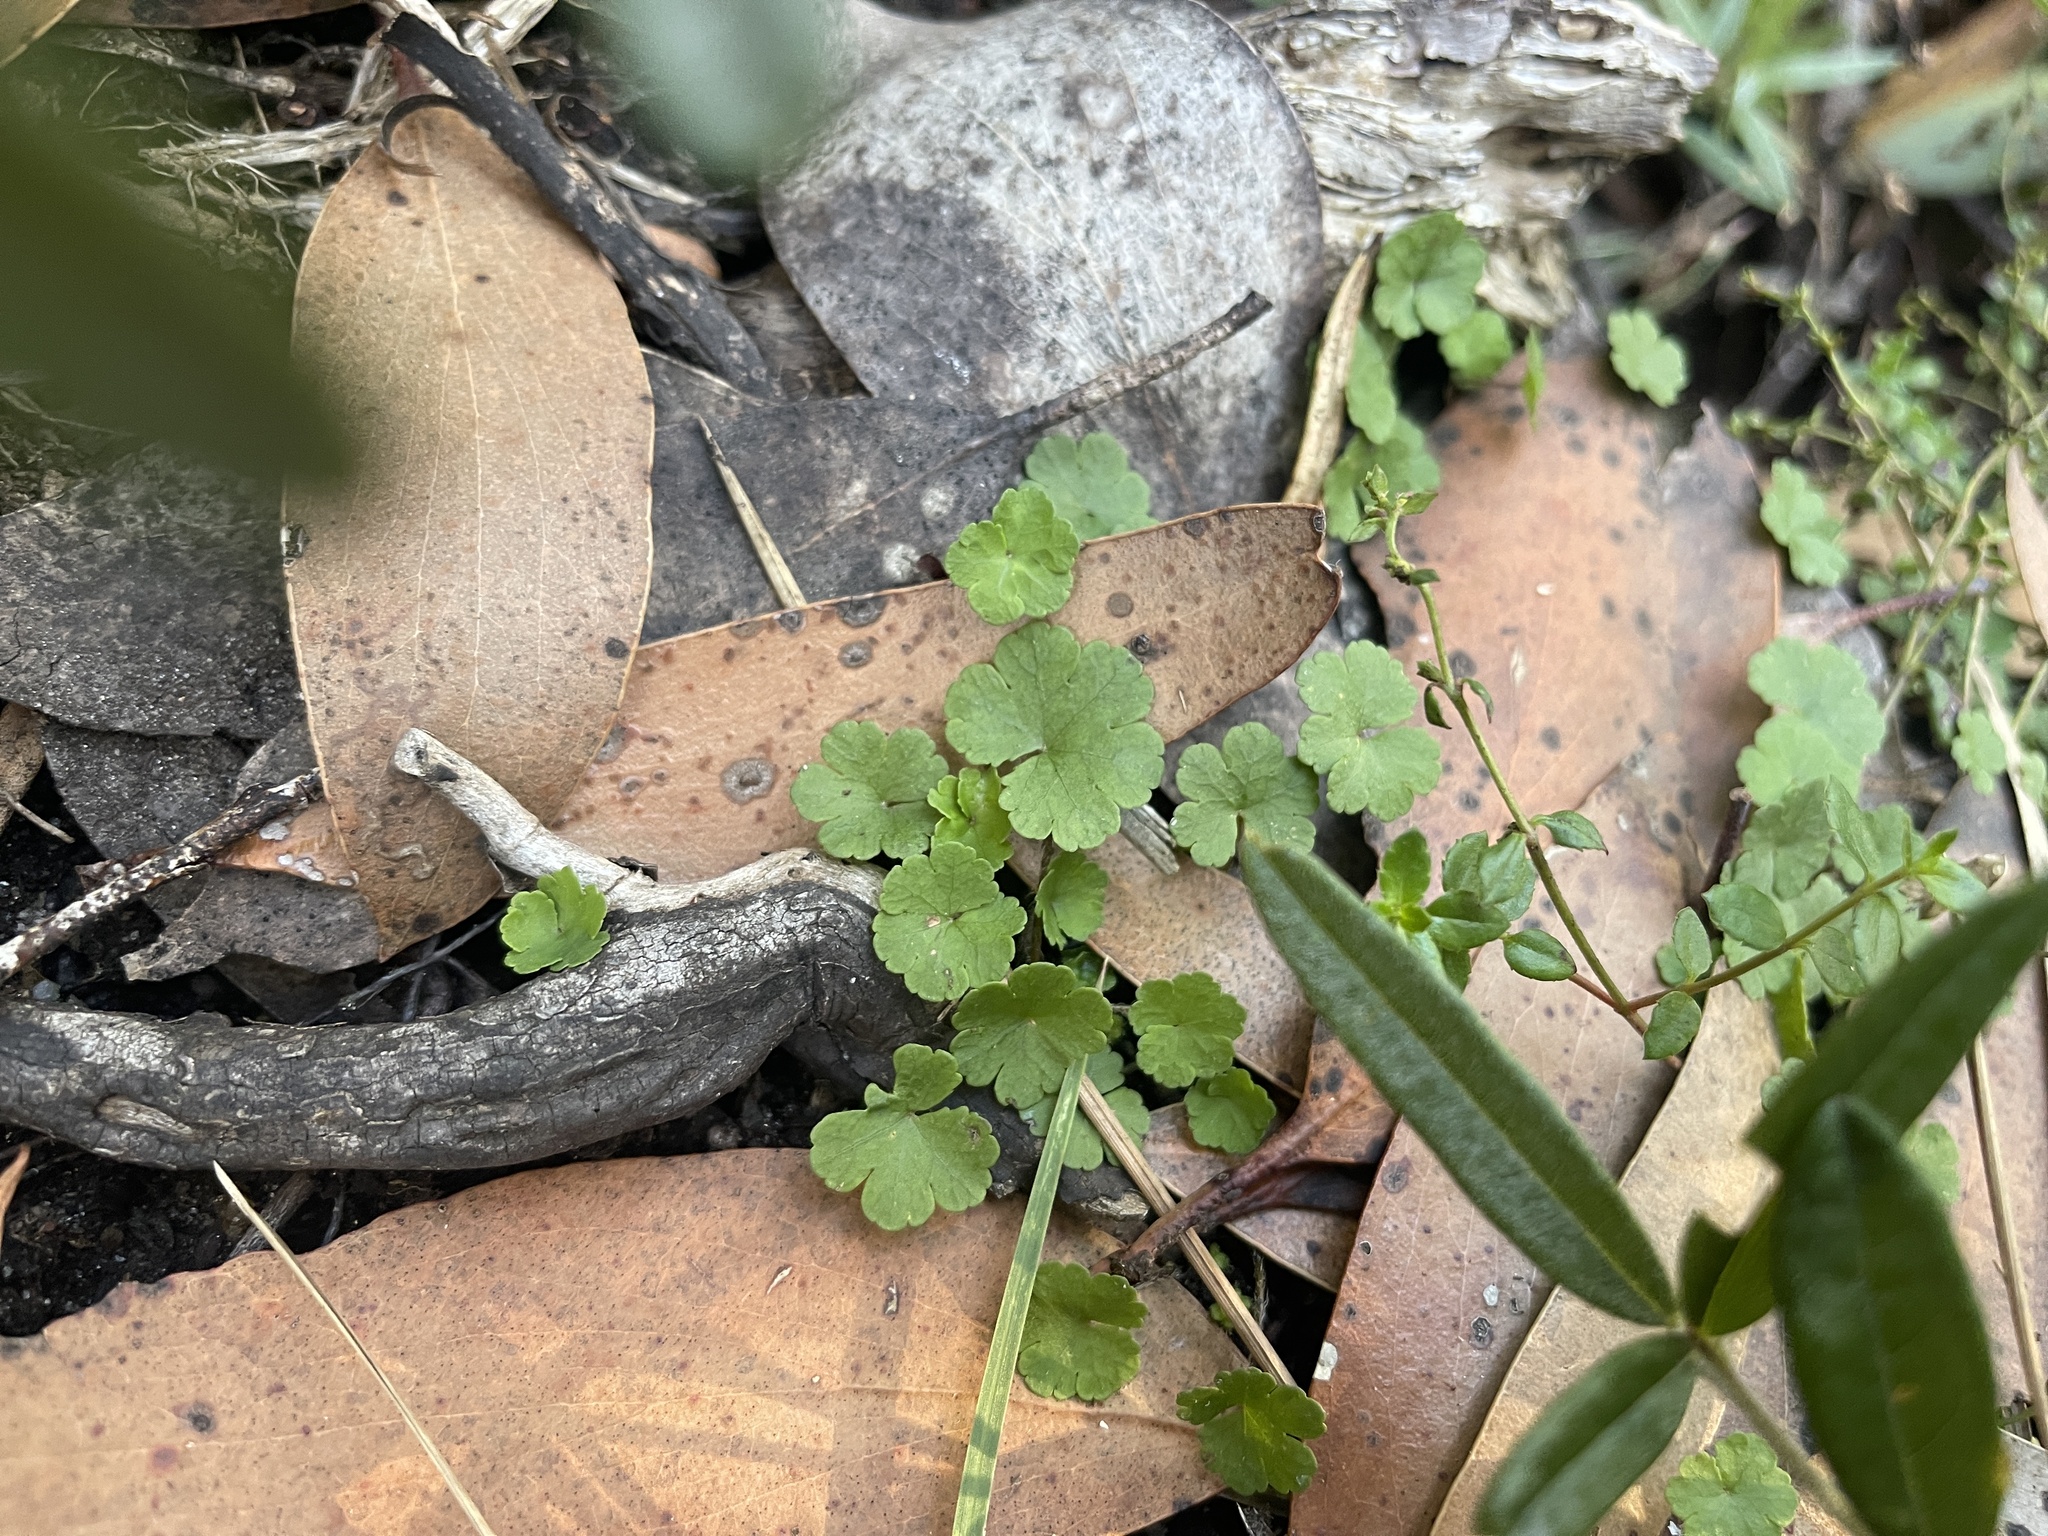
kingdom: Plantae
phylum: Tracheophyta
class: Magnoliopsida
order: Apiales
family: Araliaceae
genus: Hydrocotyle
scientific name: Hydrocotyle sibthorpioides
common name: Lawn marshpennywort
